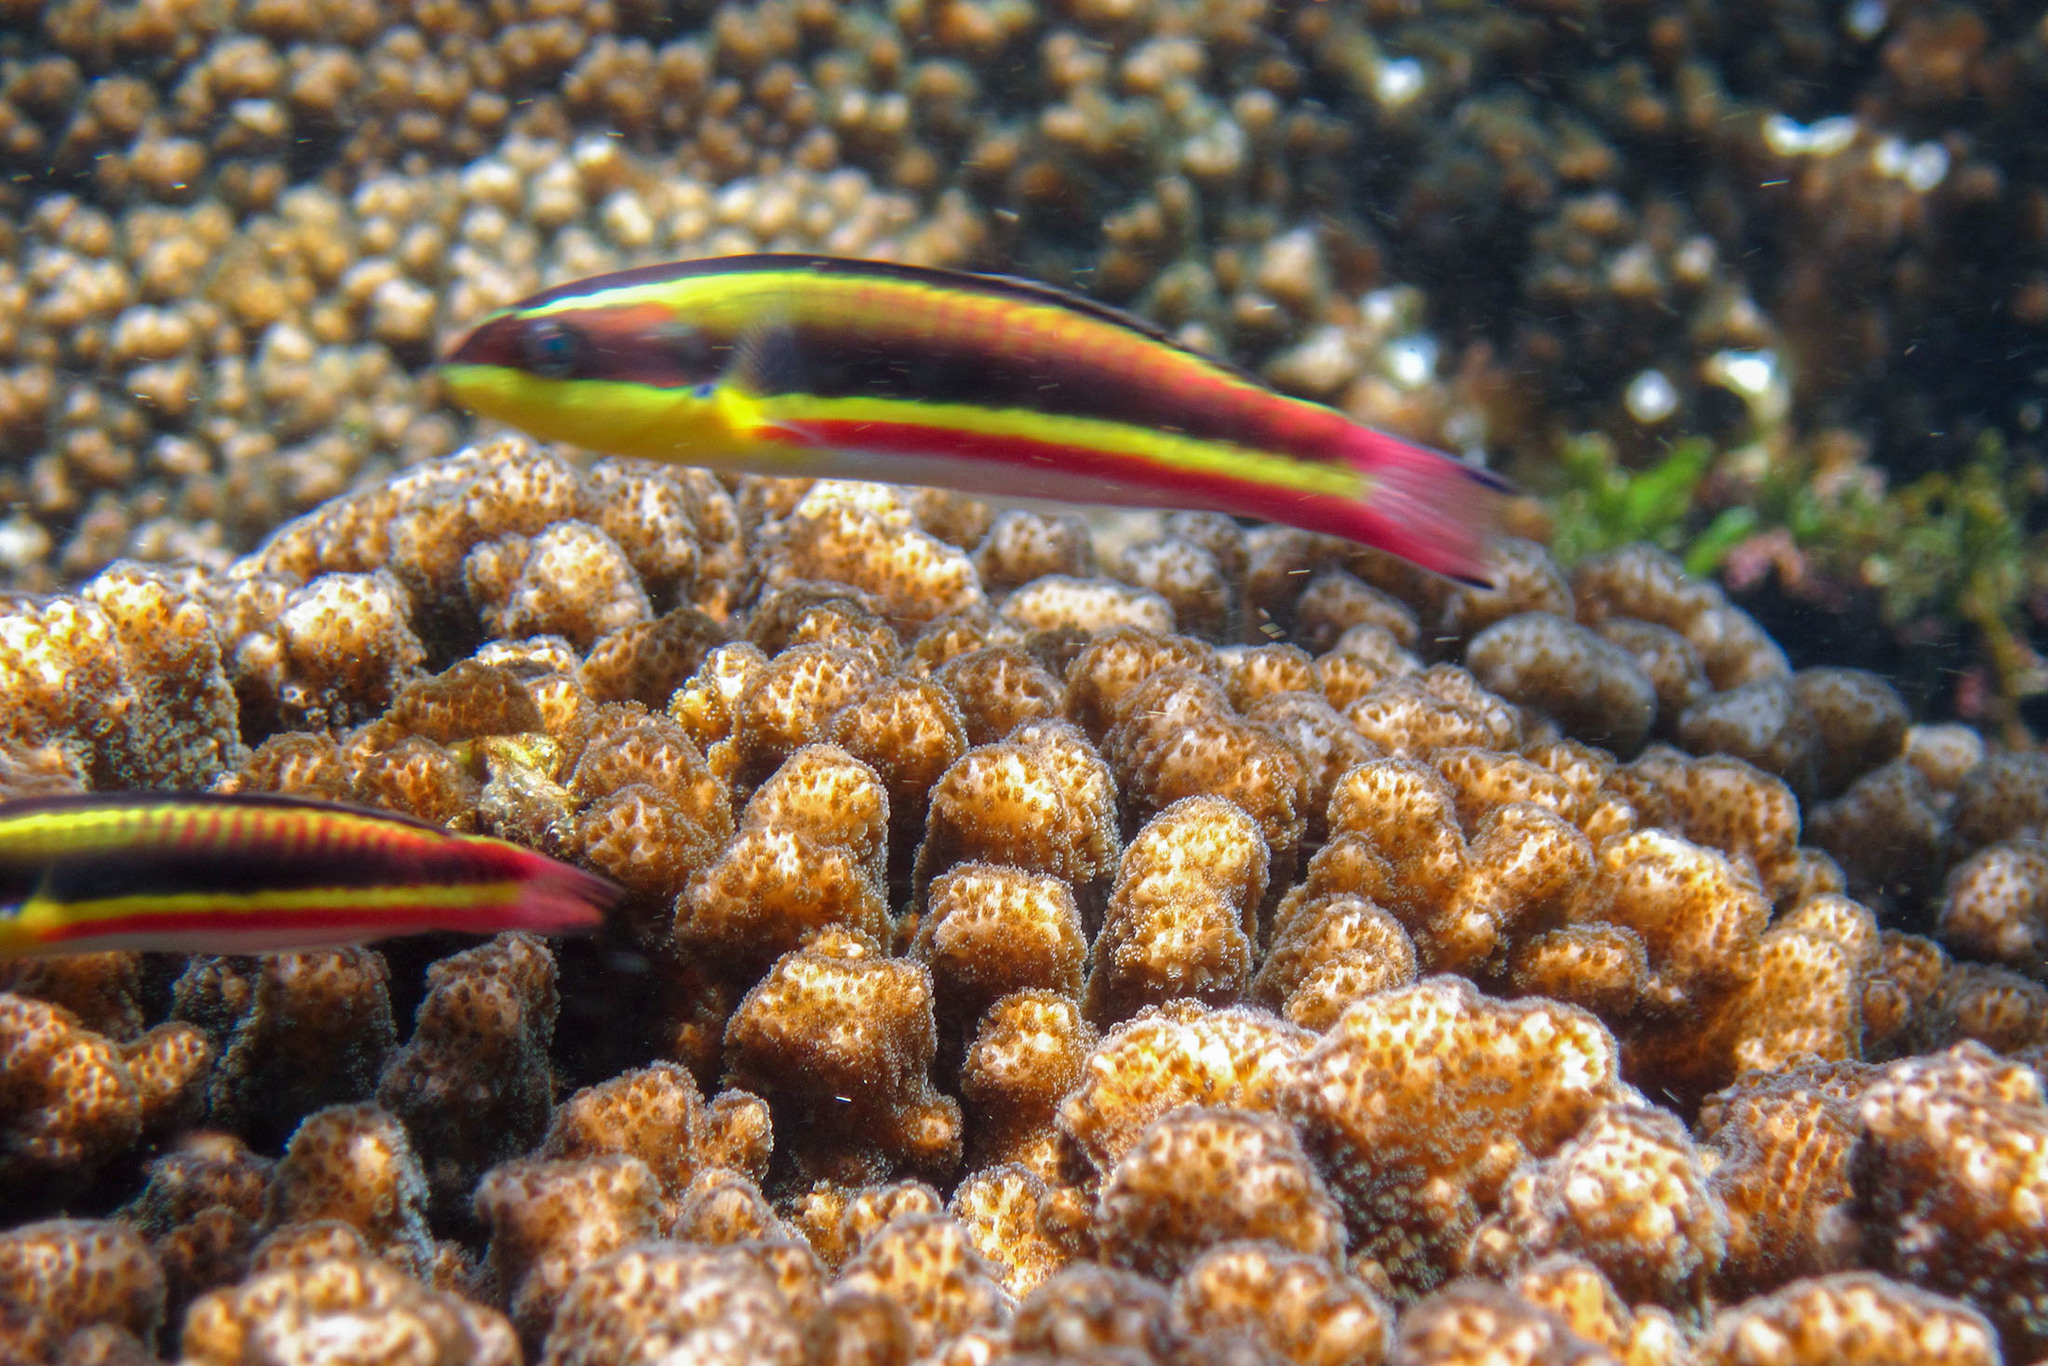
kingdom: Animalia
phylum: Chordata
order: Perciformes
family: Labridae
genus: Thalassoma
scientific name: Thalassoma lucasanum
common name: Cortez rainbow wrasse
